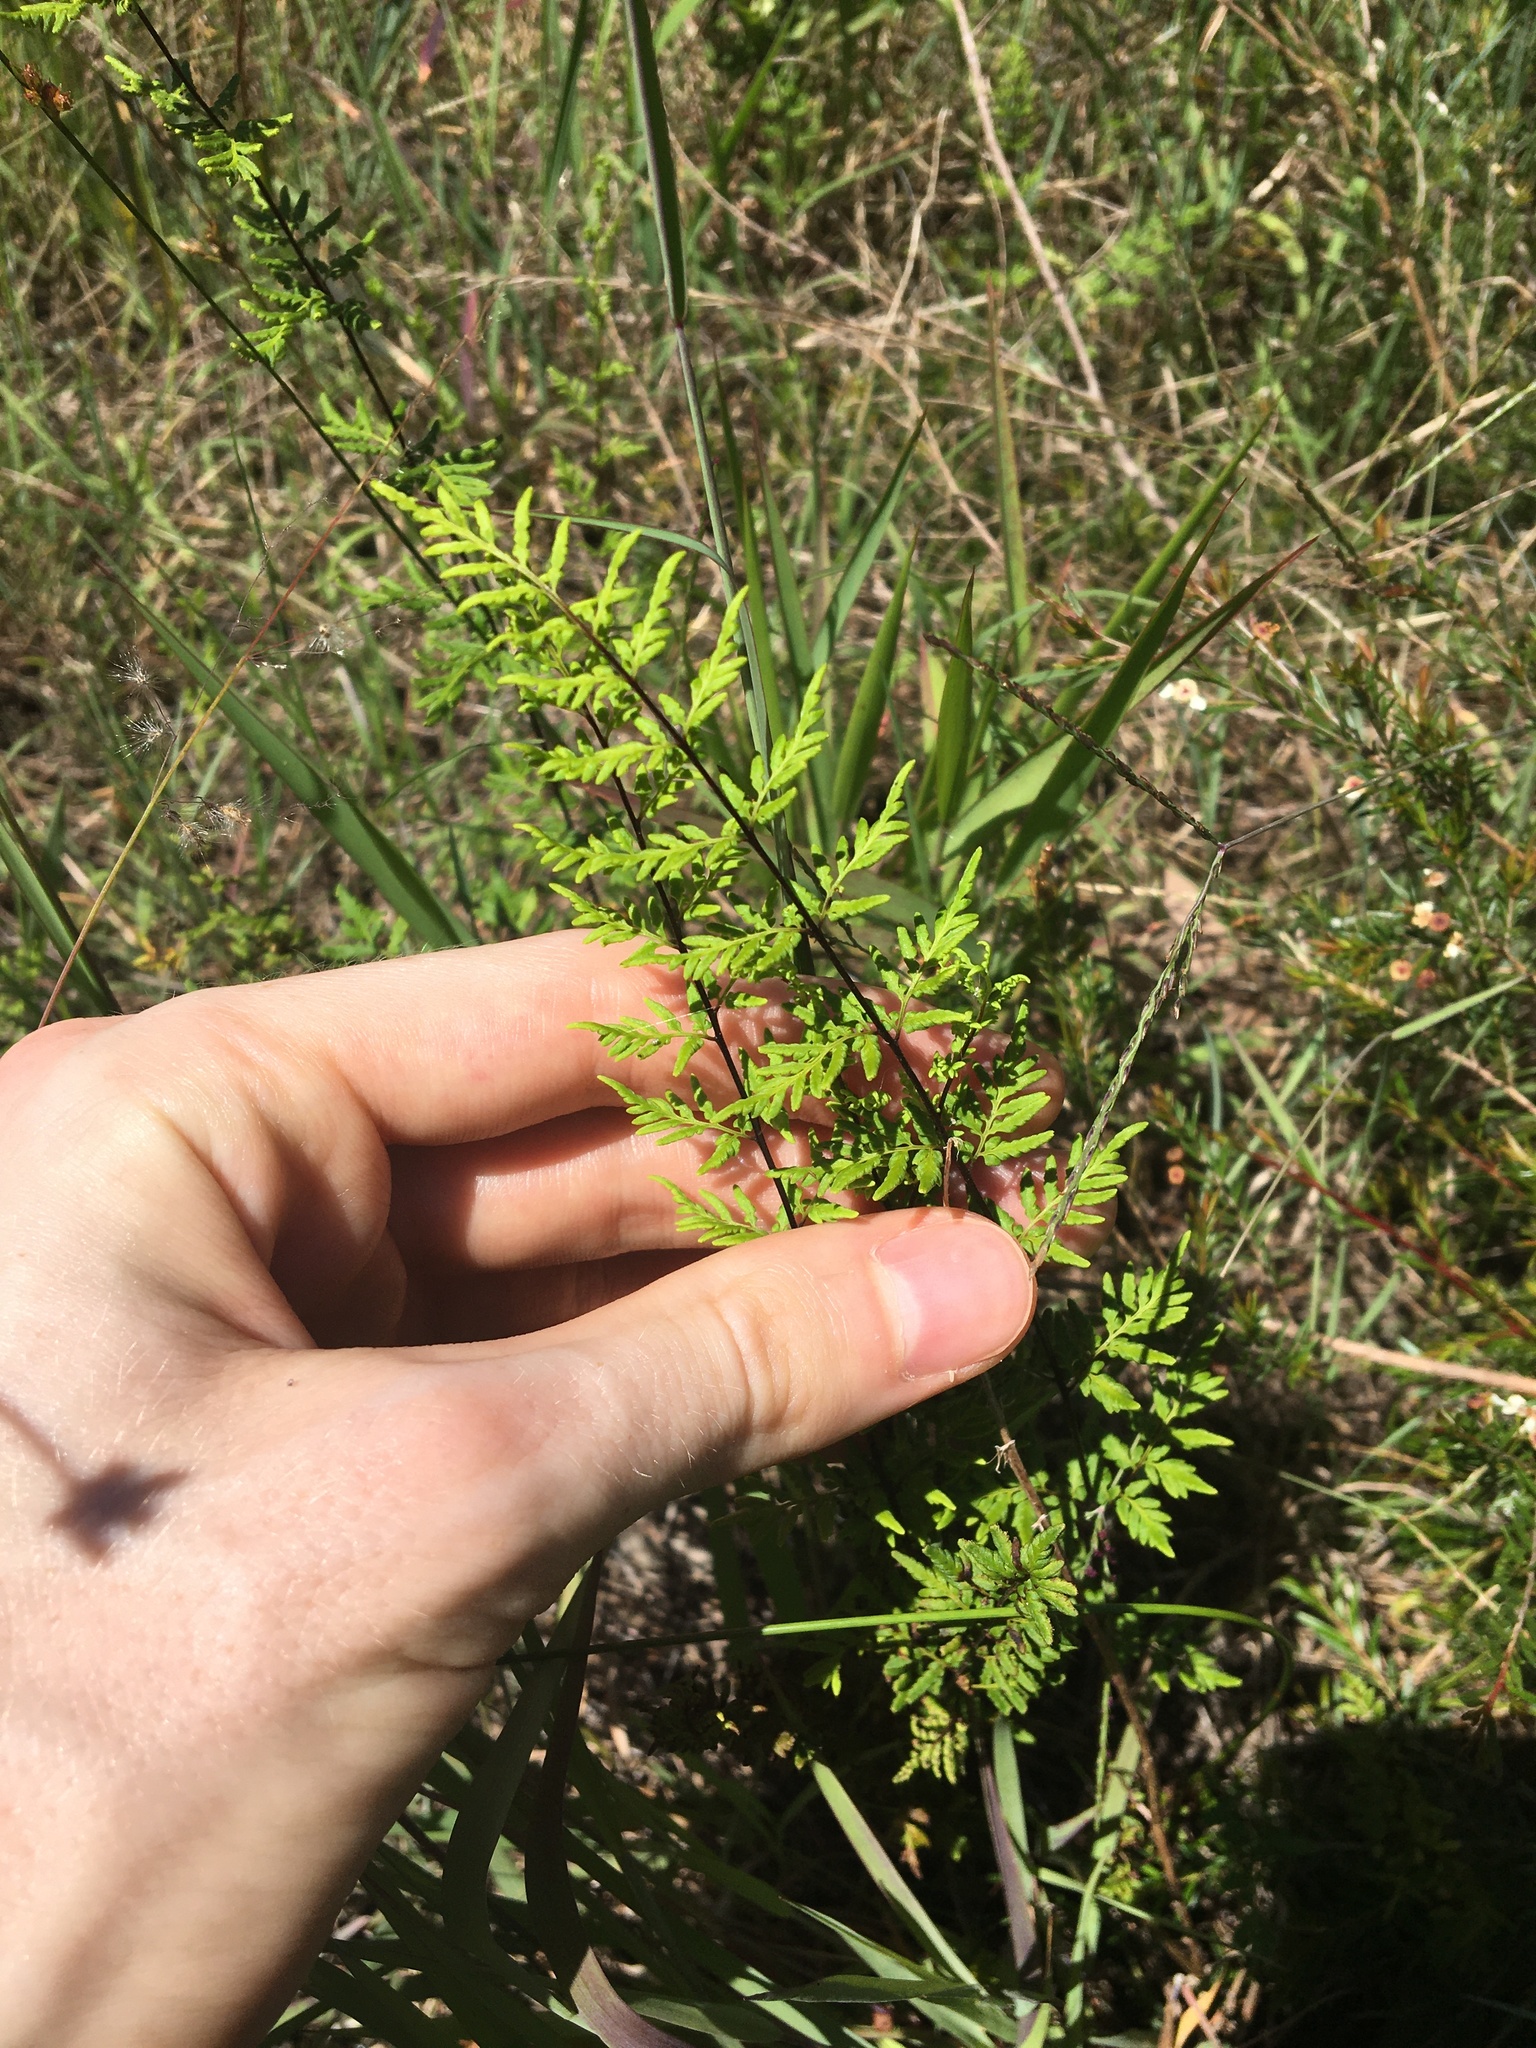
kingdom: Plantae
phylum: Tracheophyta
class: Polypodiopsida
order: Polypodiales
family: Pteridaceae
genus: Cheilanthes
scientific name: Cheilanthes sieberi
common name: Mulga fern
